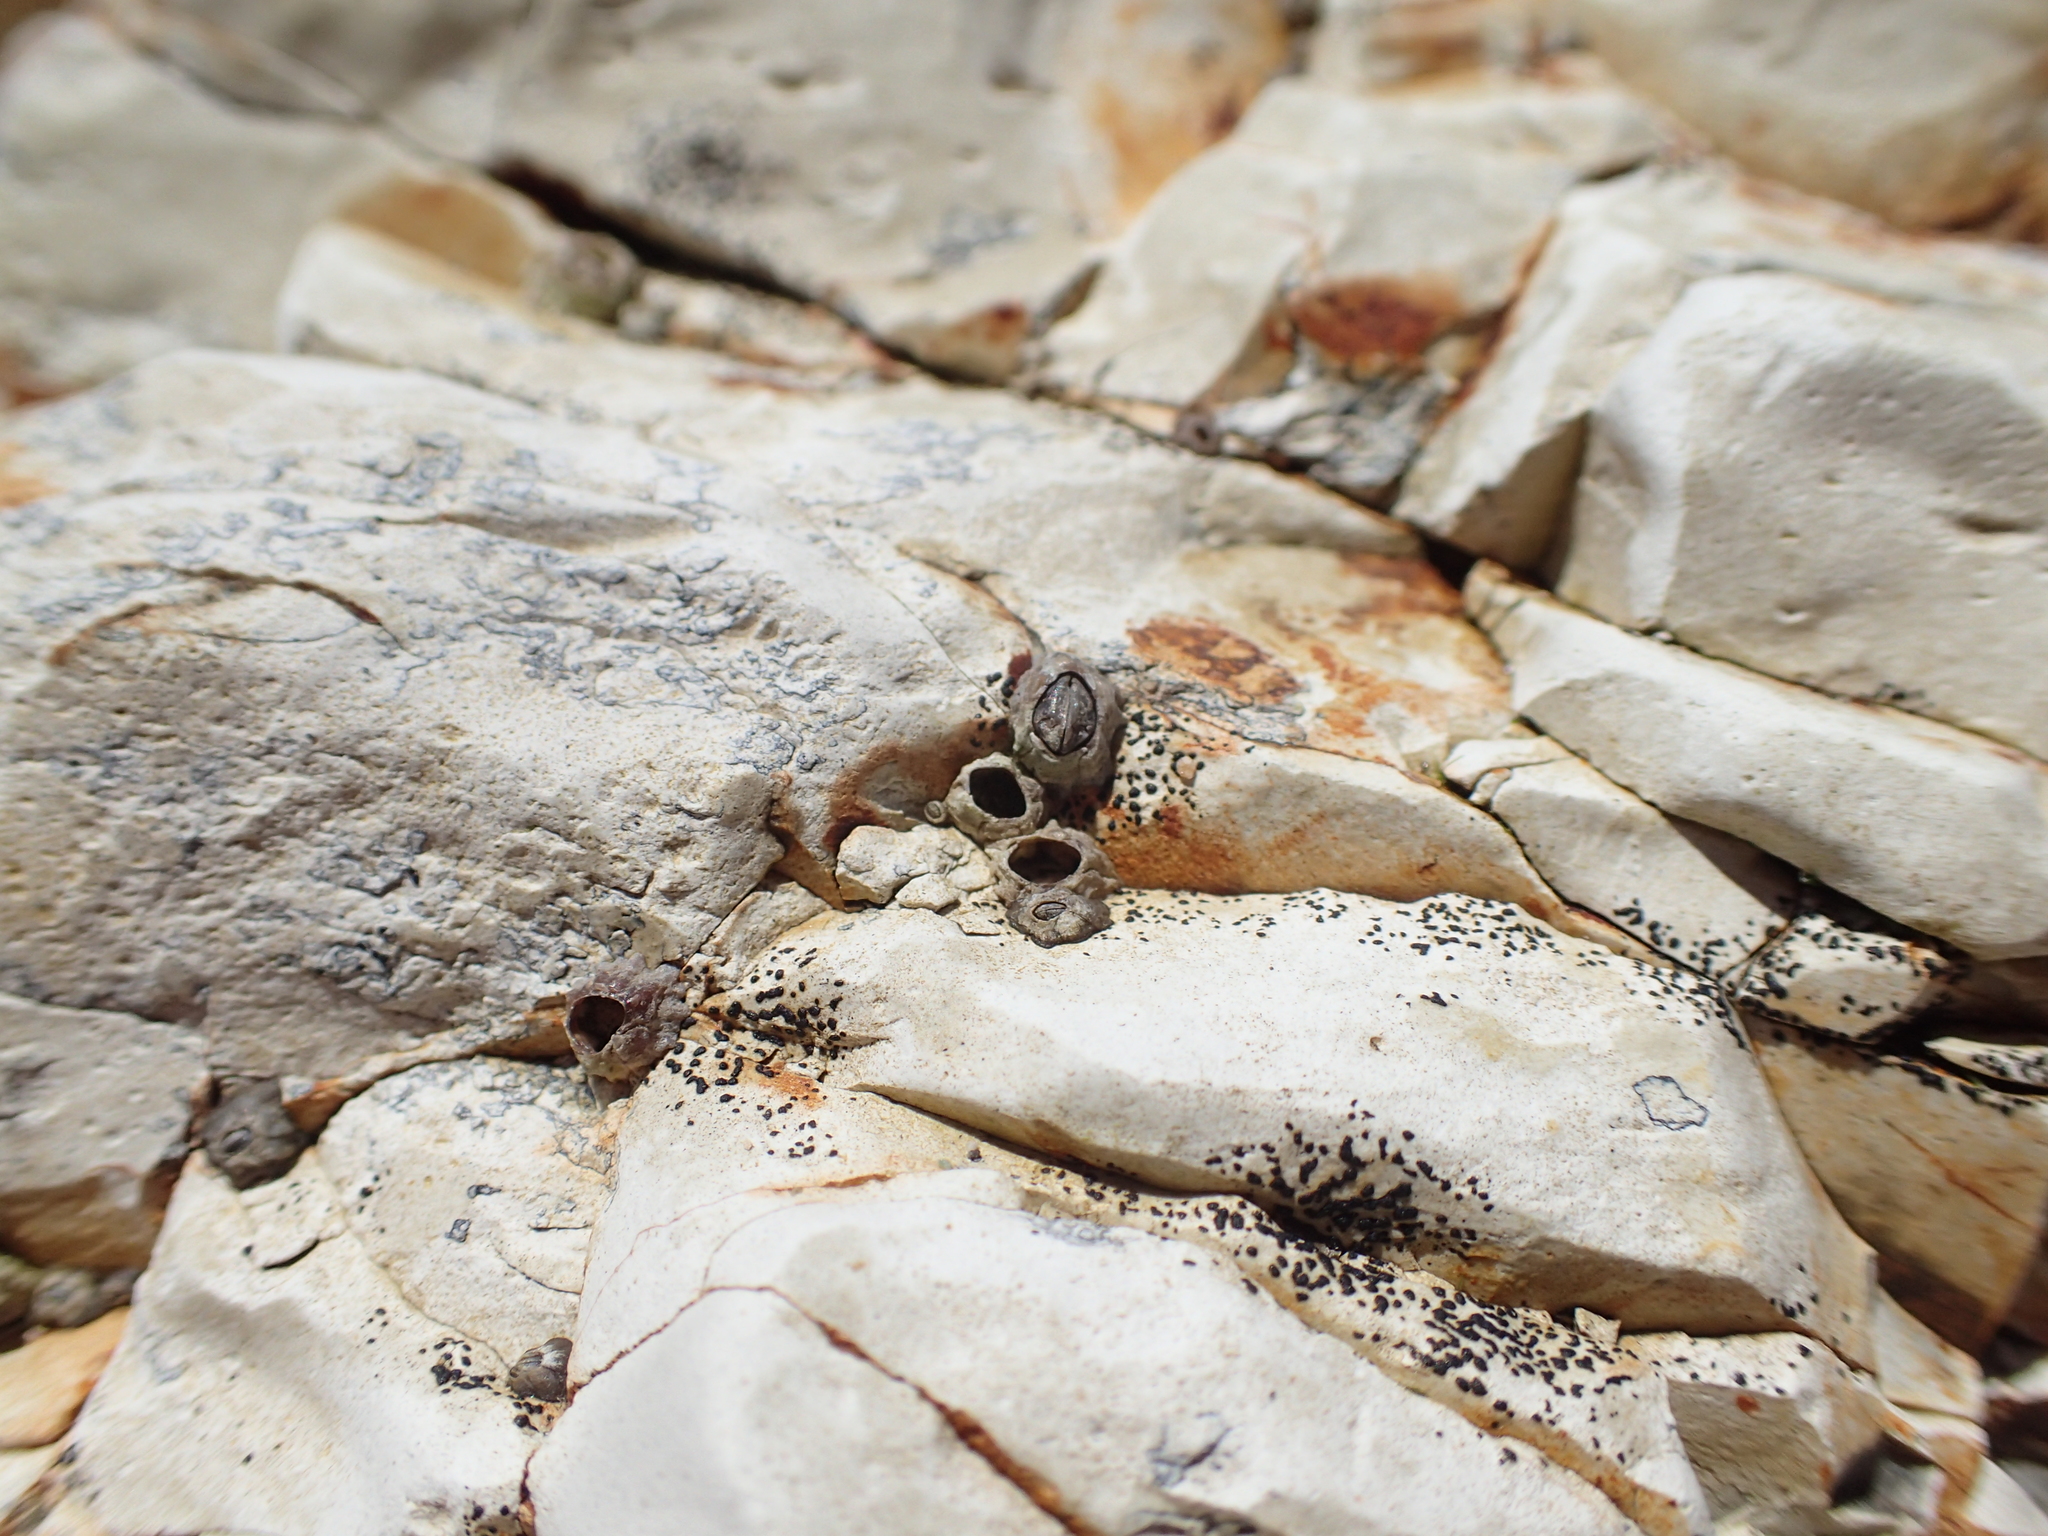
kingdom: Animalia
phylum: Arthropoda
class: Maxillopoda
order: Sessilia
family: Chthamalidae
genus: Chthamalus
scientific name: Chthamalus dalli
